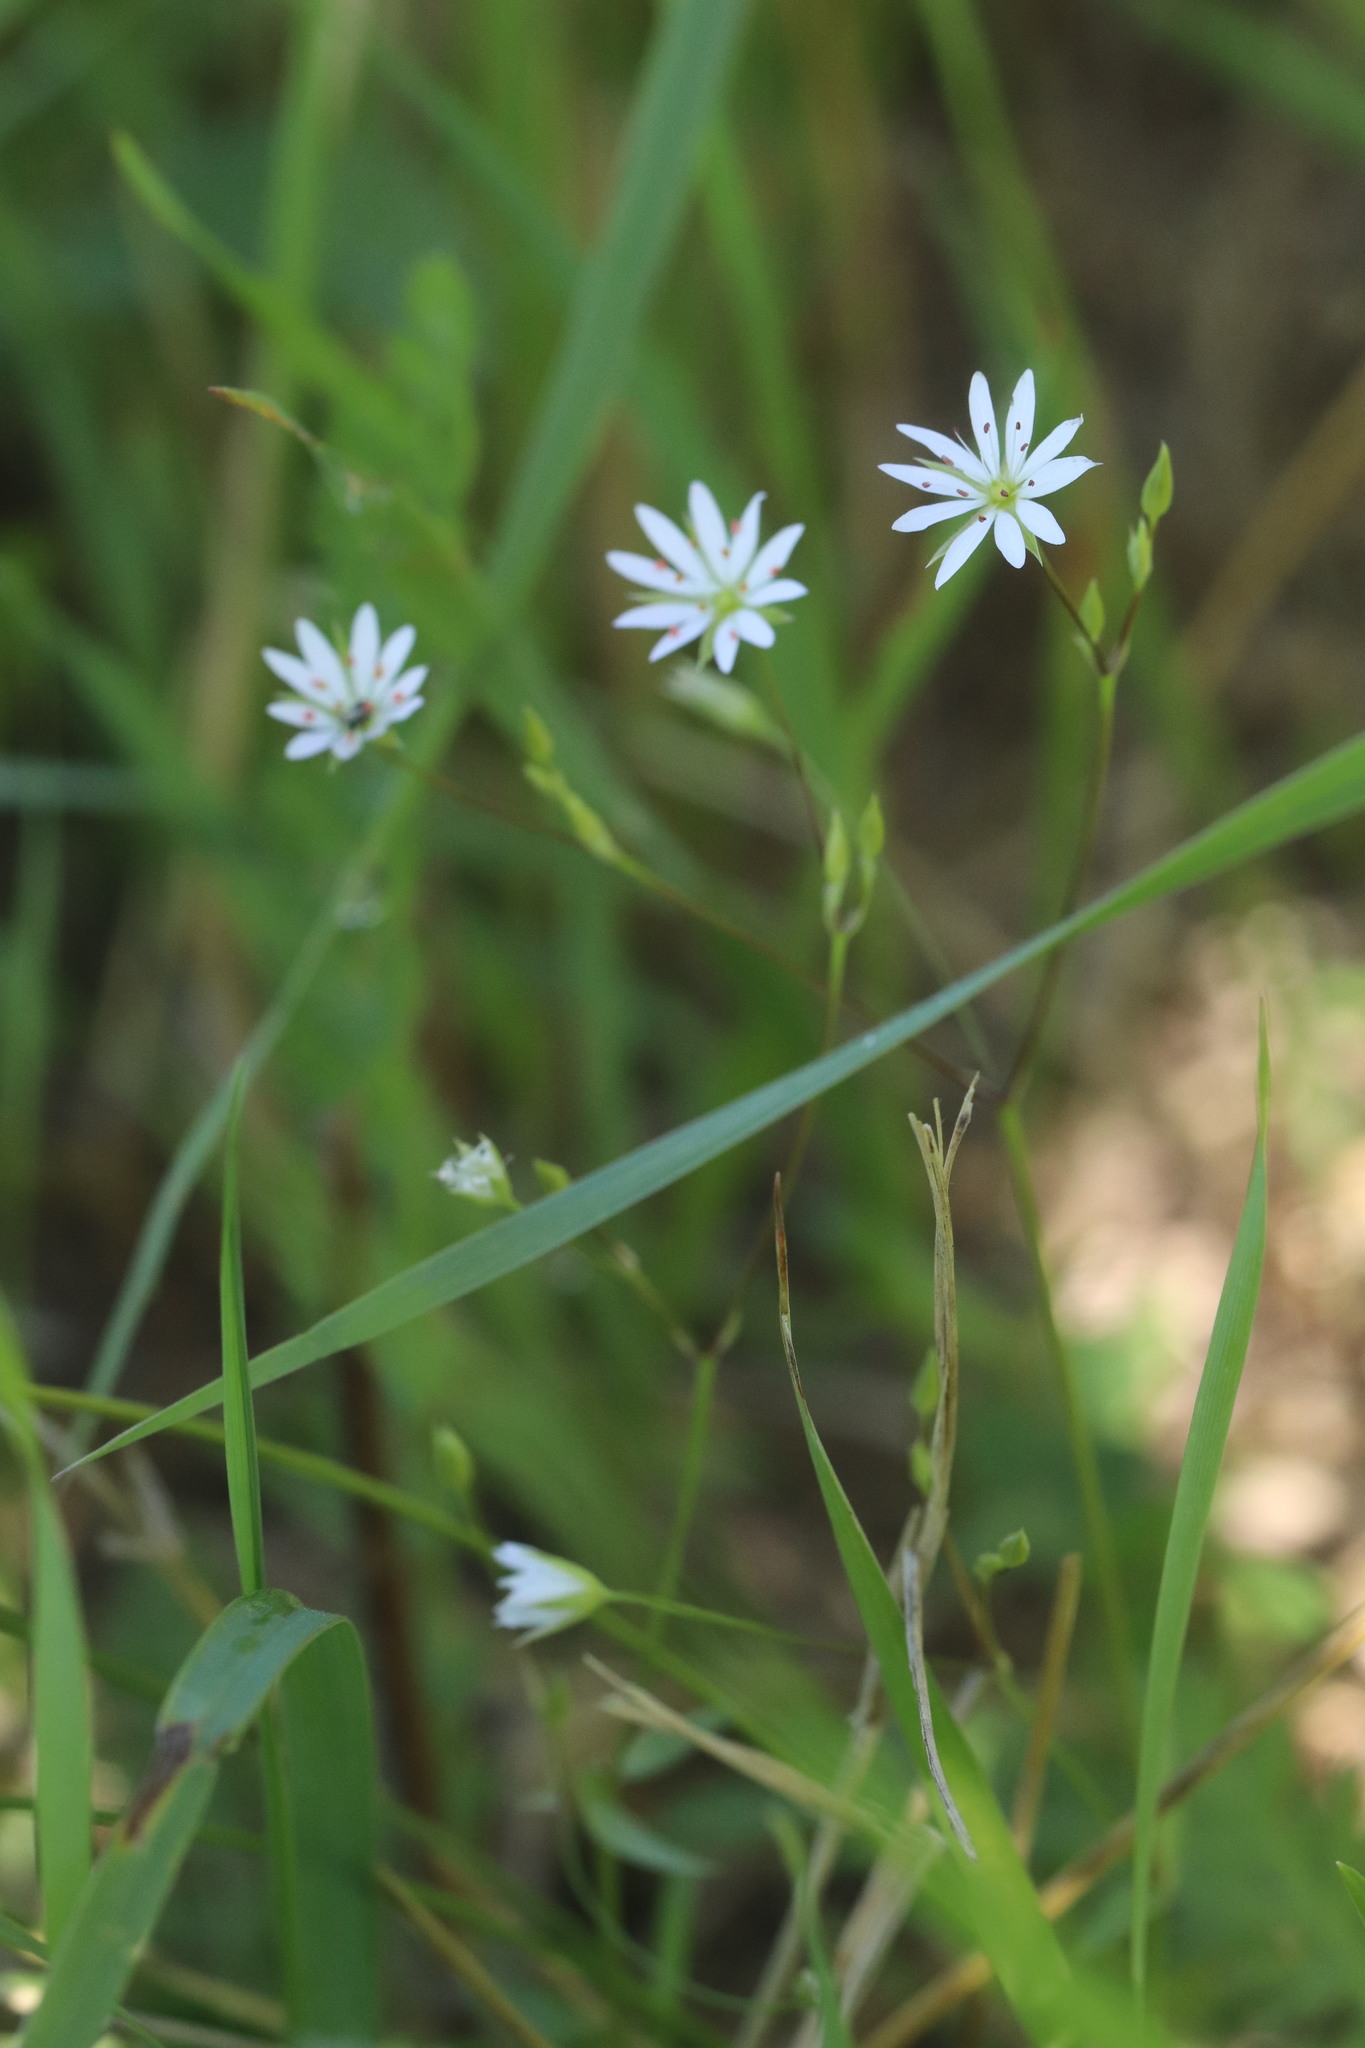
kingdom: Plantae
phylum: Tracheophyta
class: Magnoliopsida
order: Caryophyllales
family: Caryophyllaceae
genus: Stellaria
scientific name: Stellaria graminea
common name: Grass-like starwort
